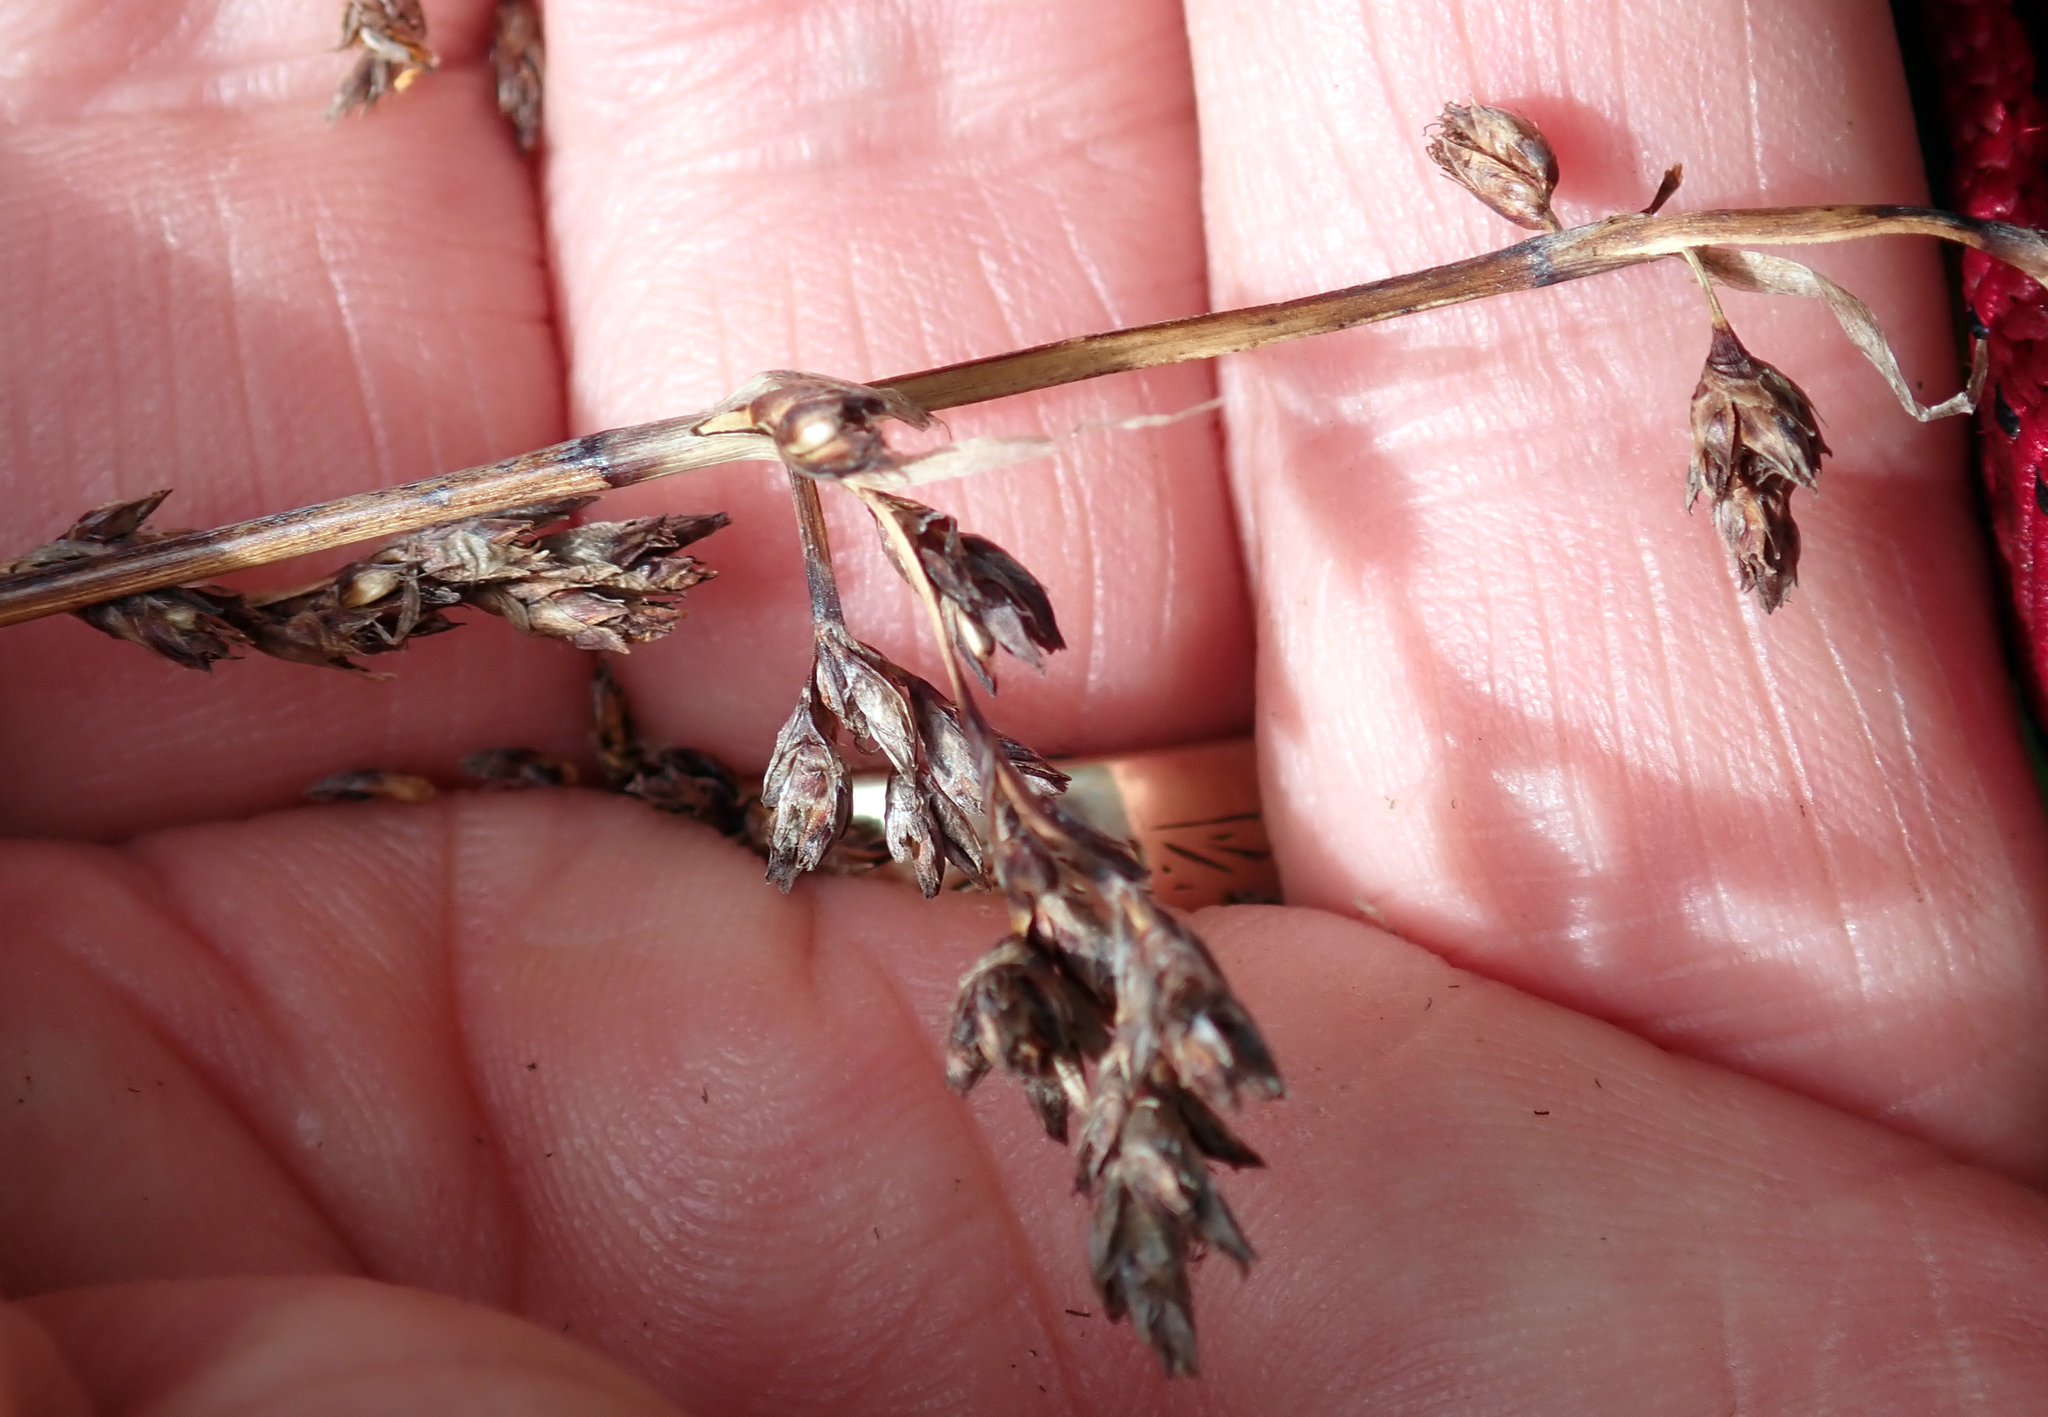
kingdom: Plantae
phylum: Tracheophyta
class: Liliopsida
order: Poales
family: Cyperaceae
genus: Machaerina
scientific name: Machaerina arthrophylla
